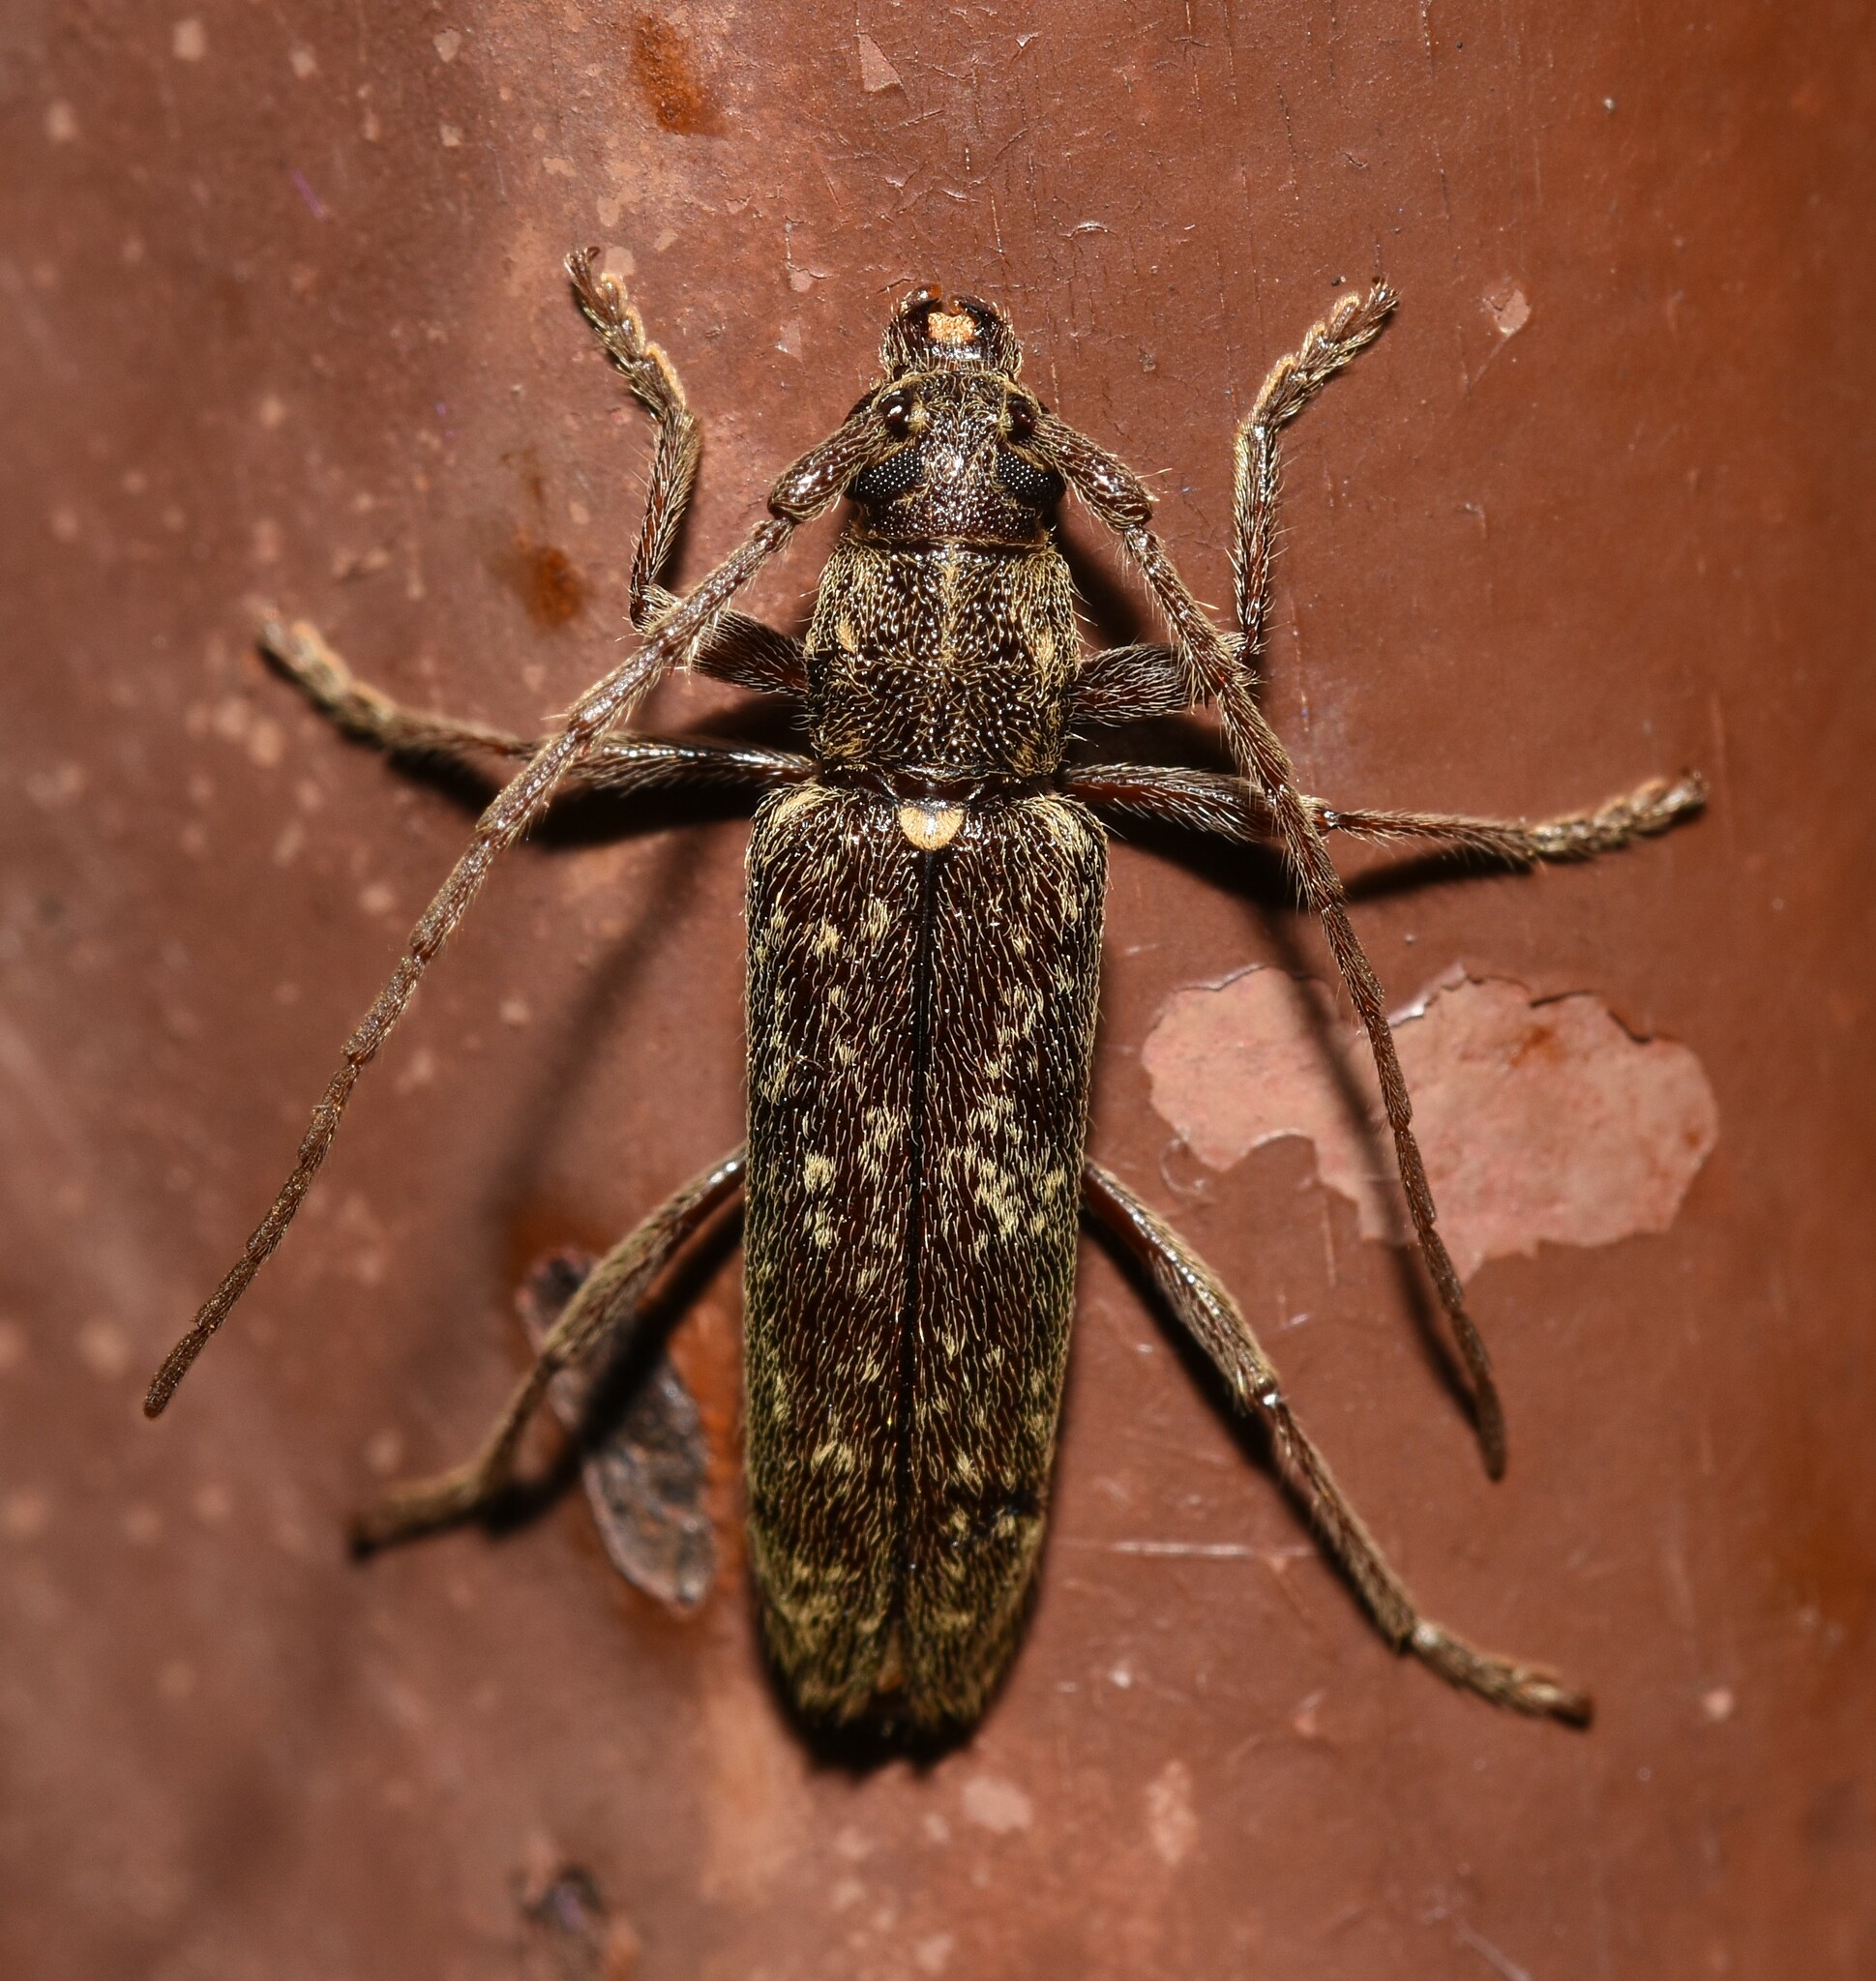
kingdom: Animalia
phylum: Arthropoda
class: Insecta
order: Coleoptera
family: Cerambycidae
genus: Anelaphus
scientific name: Anelaphus villosus
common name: Twig pruner
